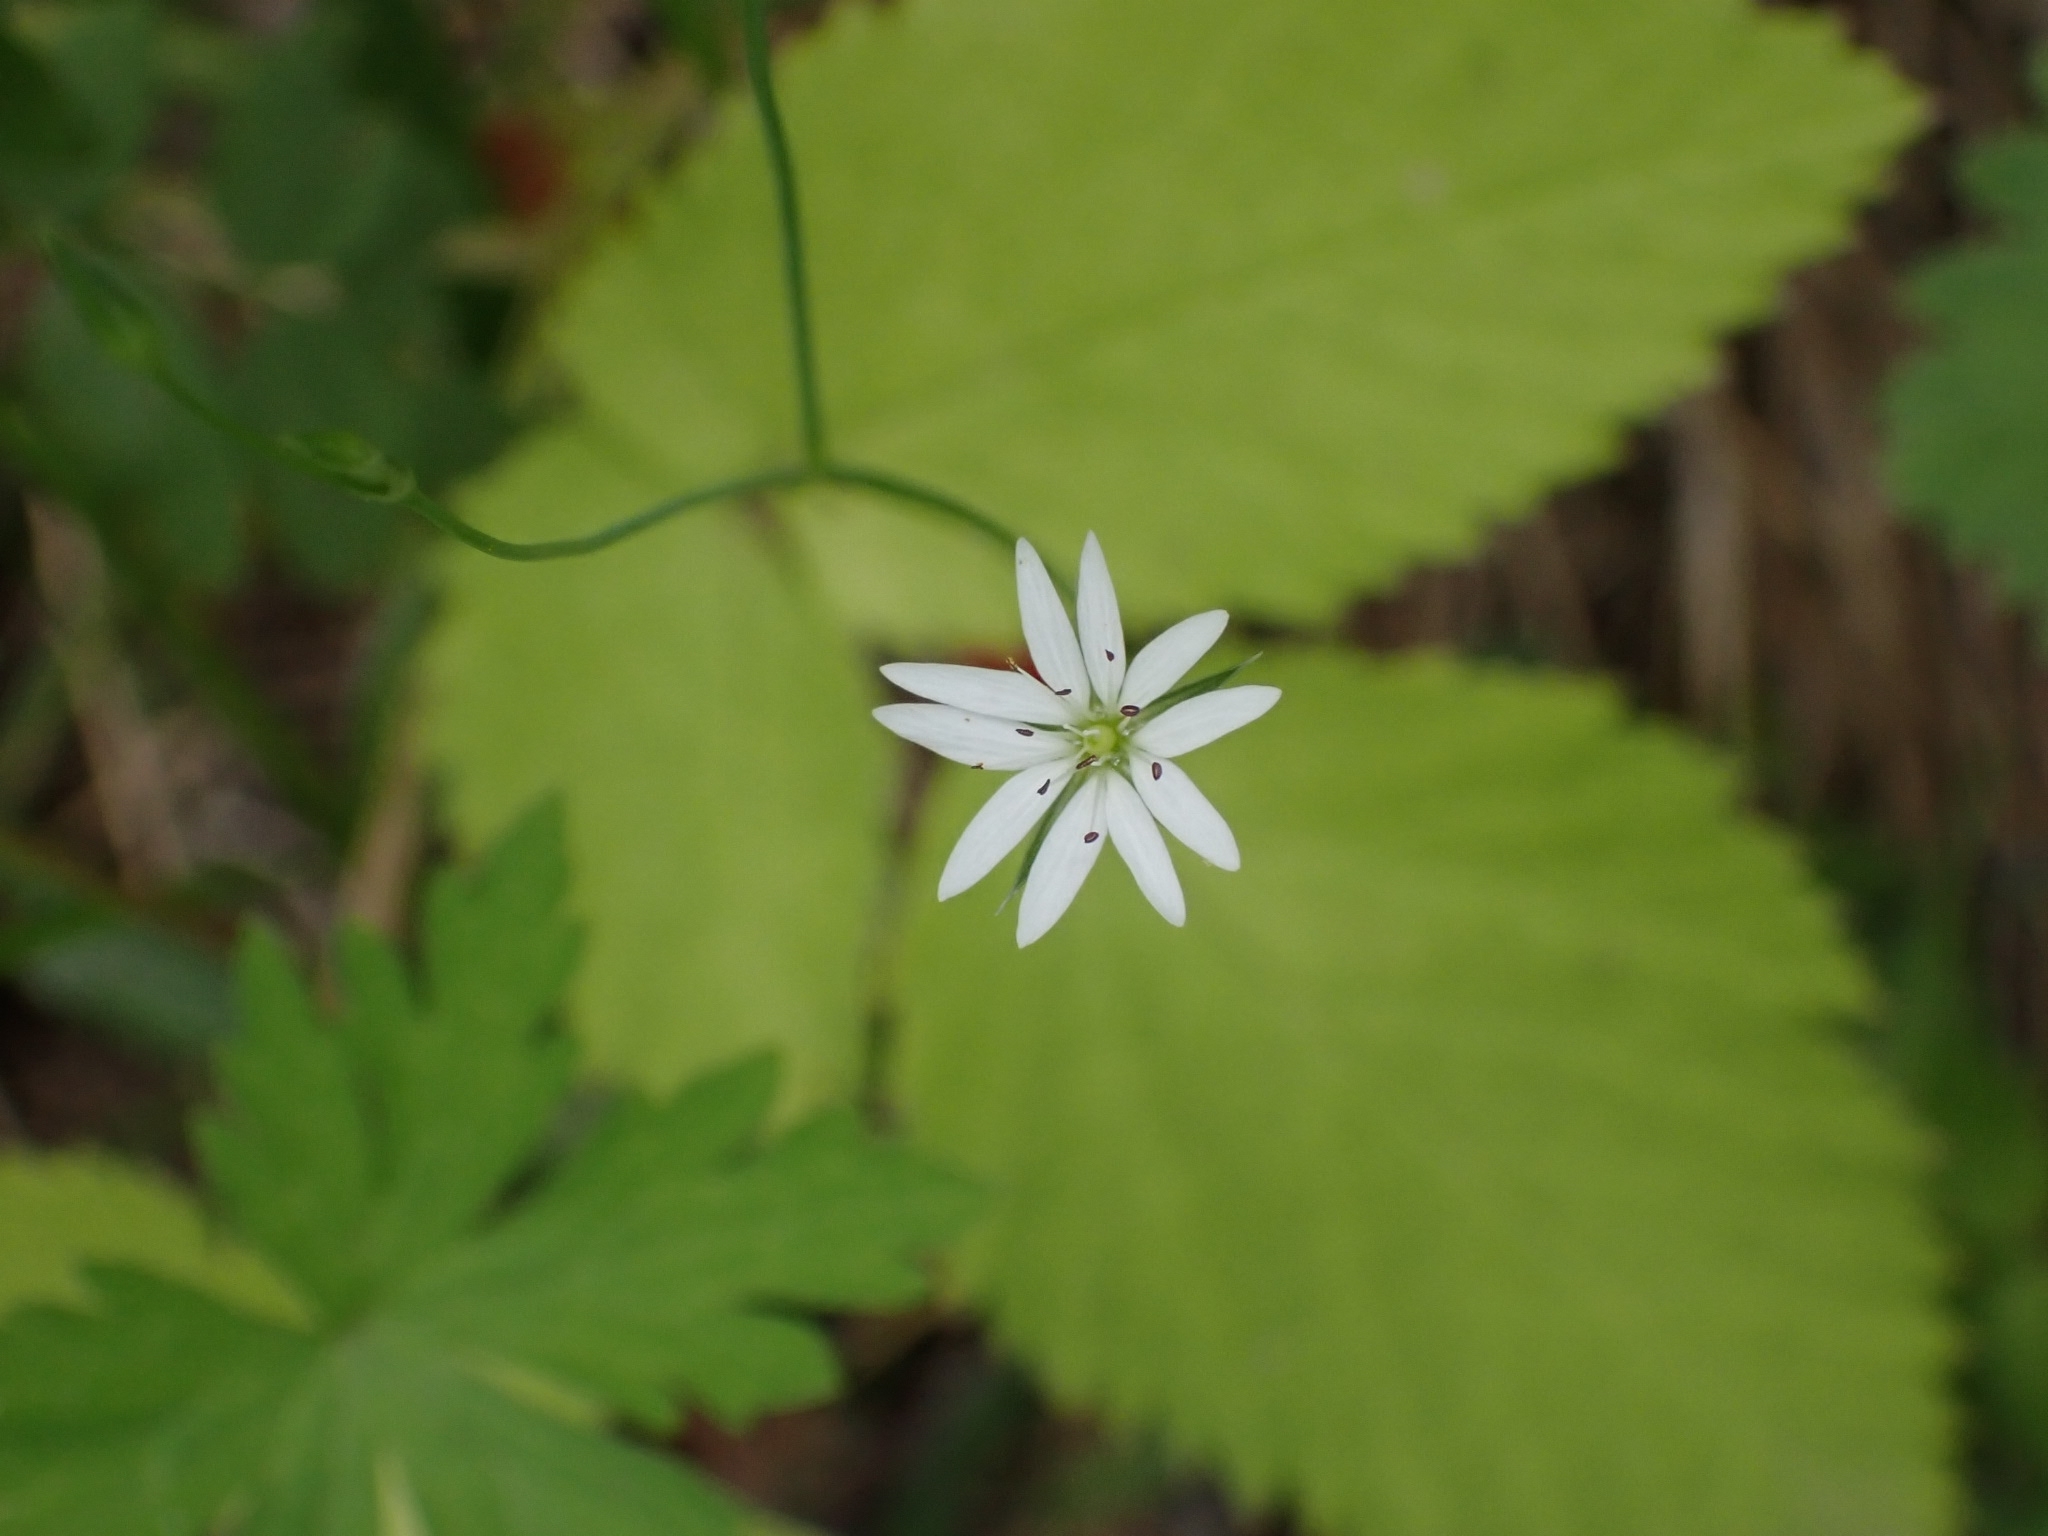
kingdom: Plantae
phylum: Tracheophyta
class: Magnoliopsida
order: Caryophyllales
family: Caryophyllaceae
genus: Stellaria
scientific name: Stellaria graminea
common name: Grass-like starwort
